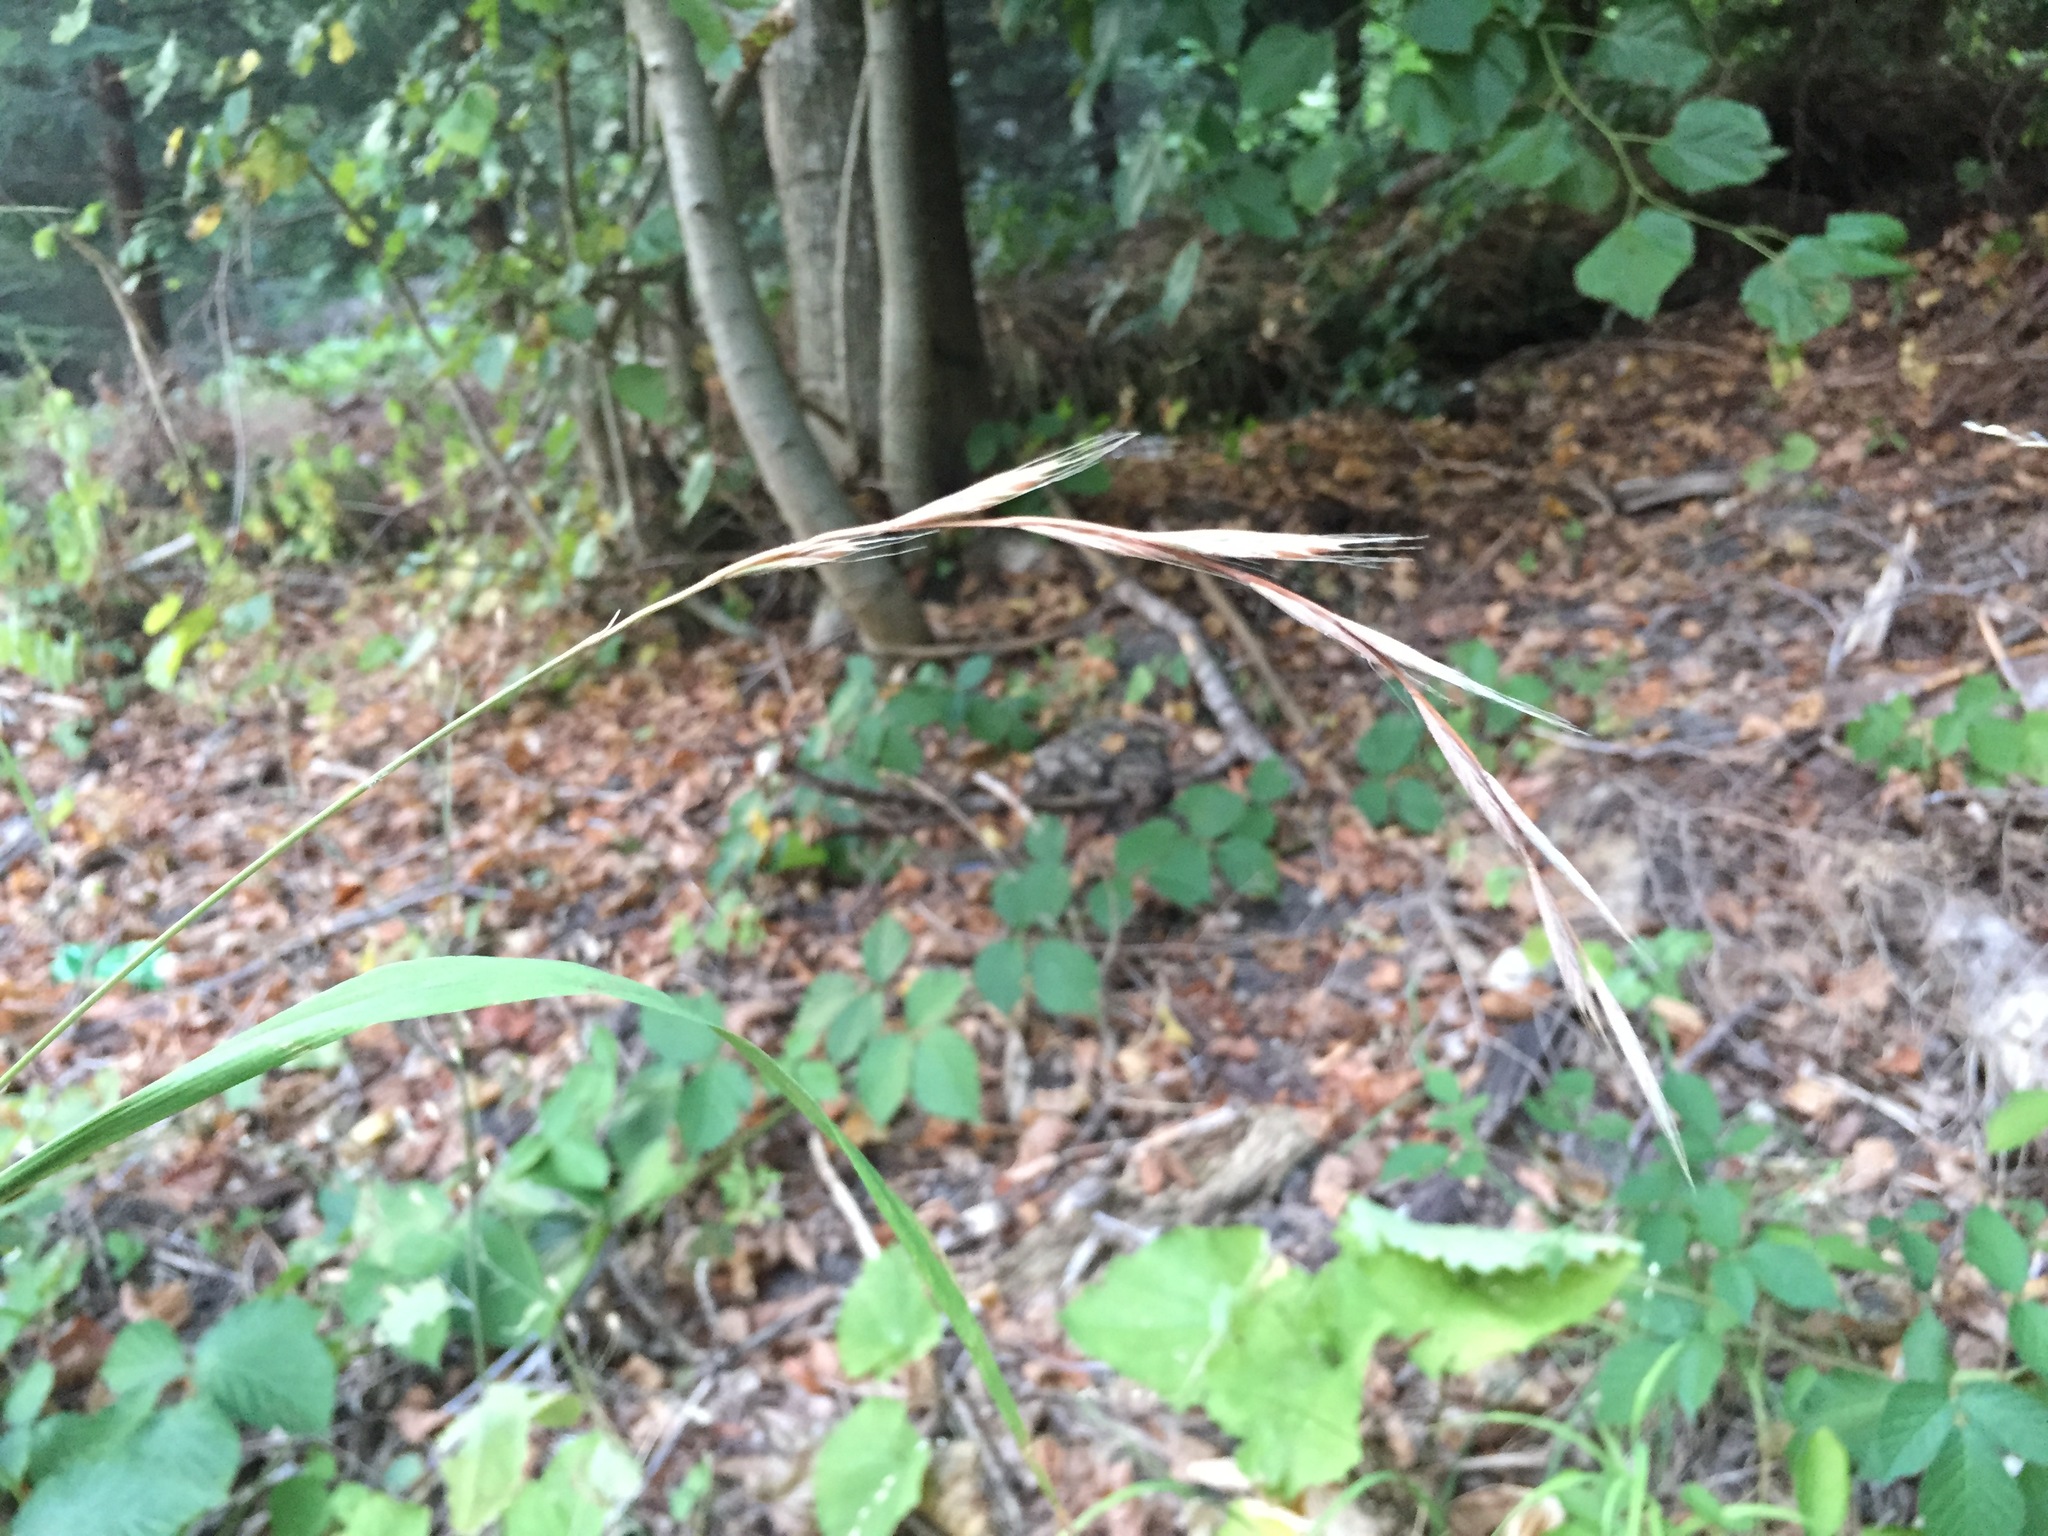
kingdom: Plantae
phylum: Tracheophyta
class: Liliopsida
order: Poales
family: Poaceae
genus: Brachypodium
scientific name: Brachypodium sylvaticum
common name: False-brome
